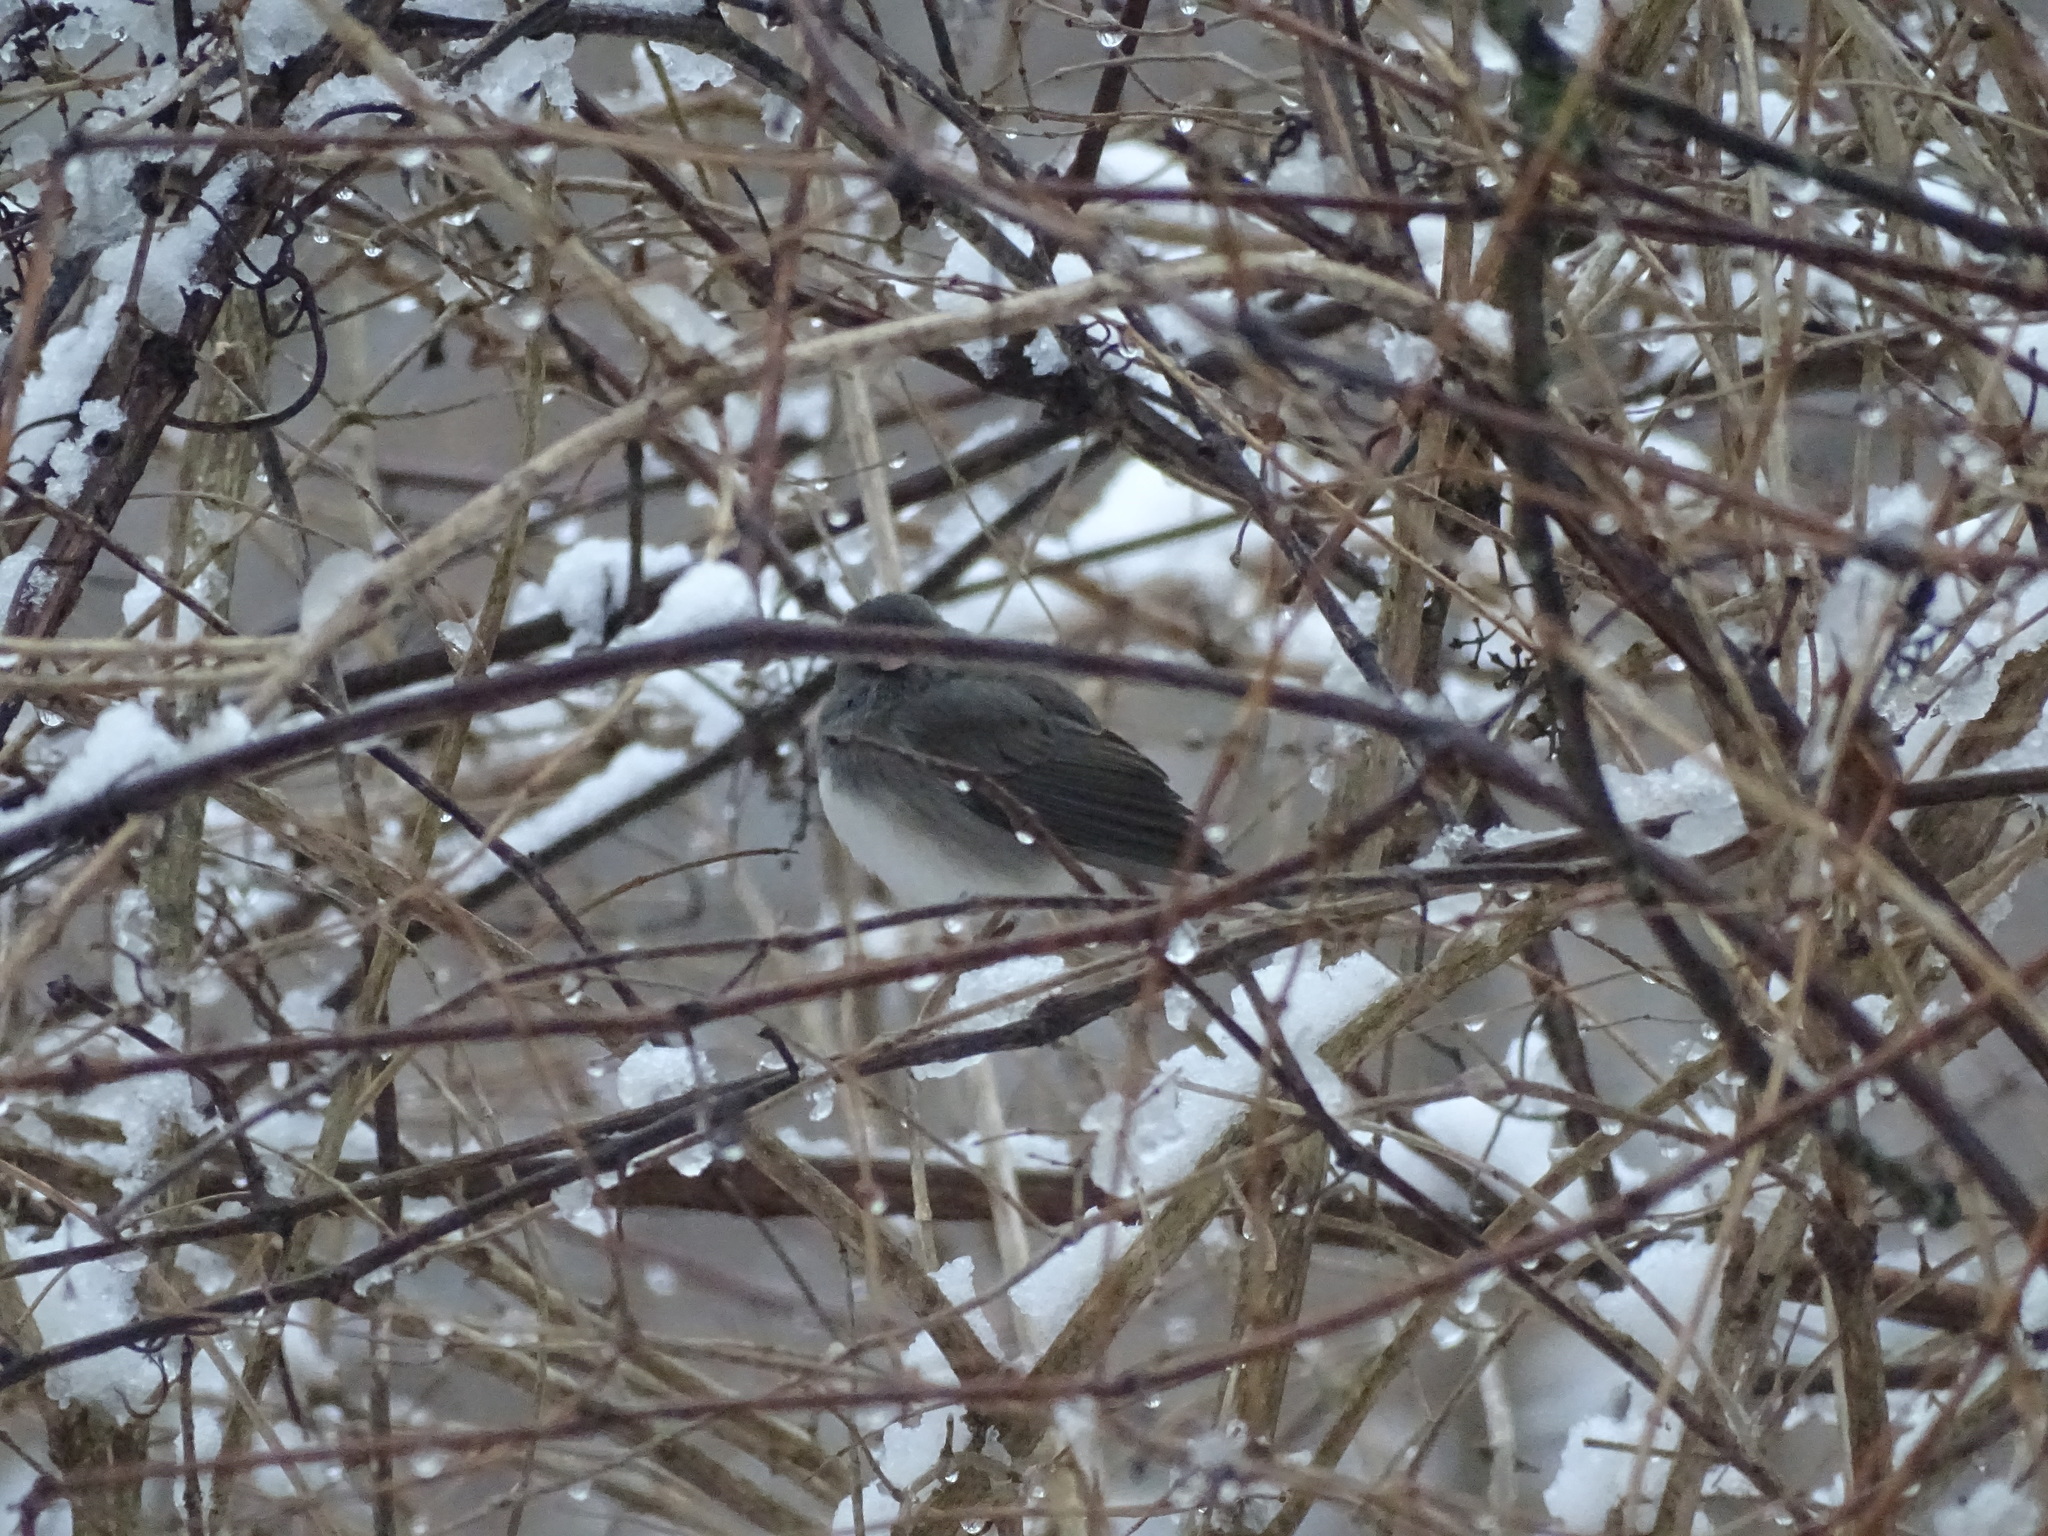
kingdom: Animalia
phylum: Chordata
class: Aves
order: Passeriformes
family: Passerellidae
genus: Junco
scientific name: Junco hyemalis
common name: Dark-eyed junco
